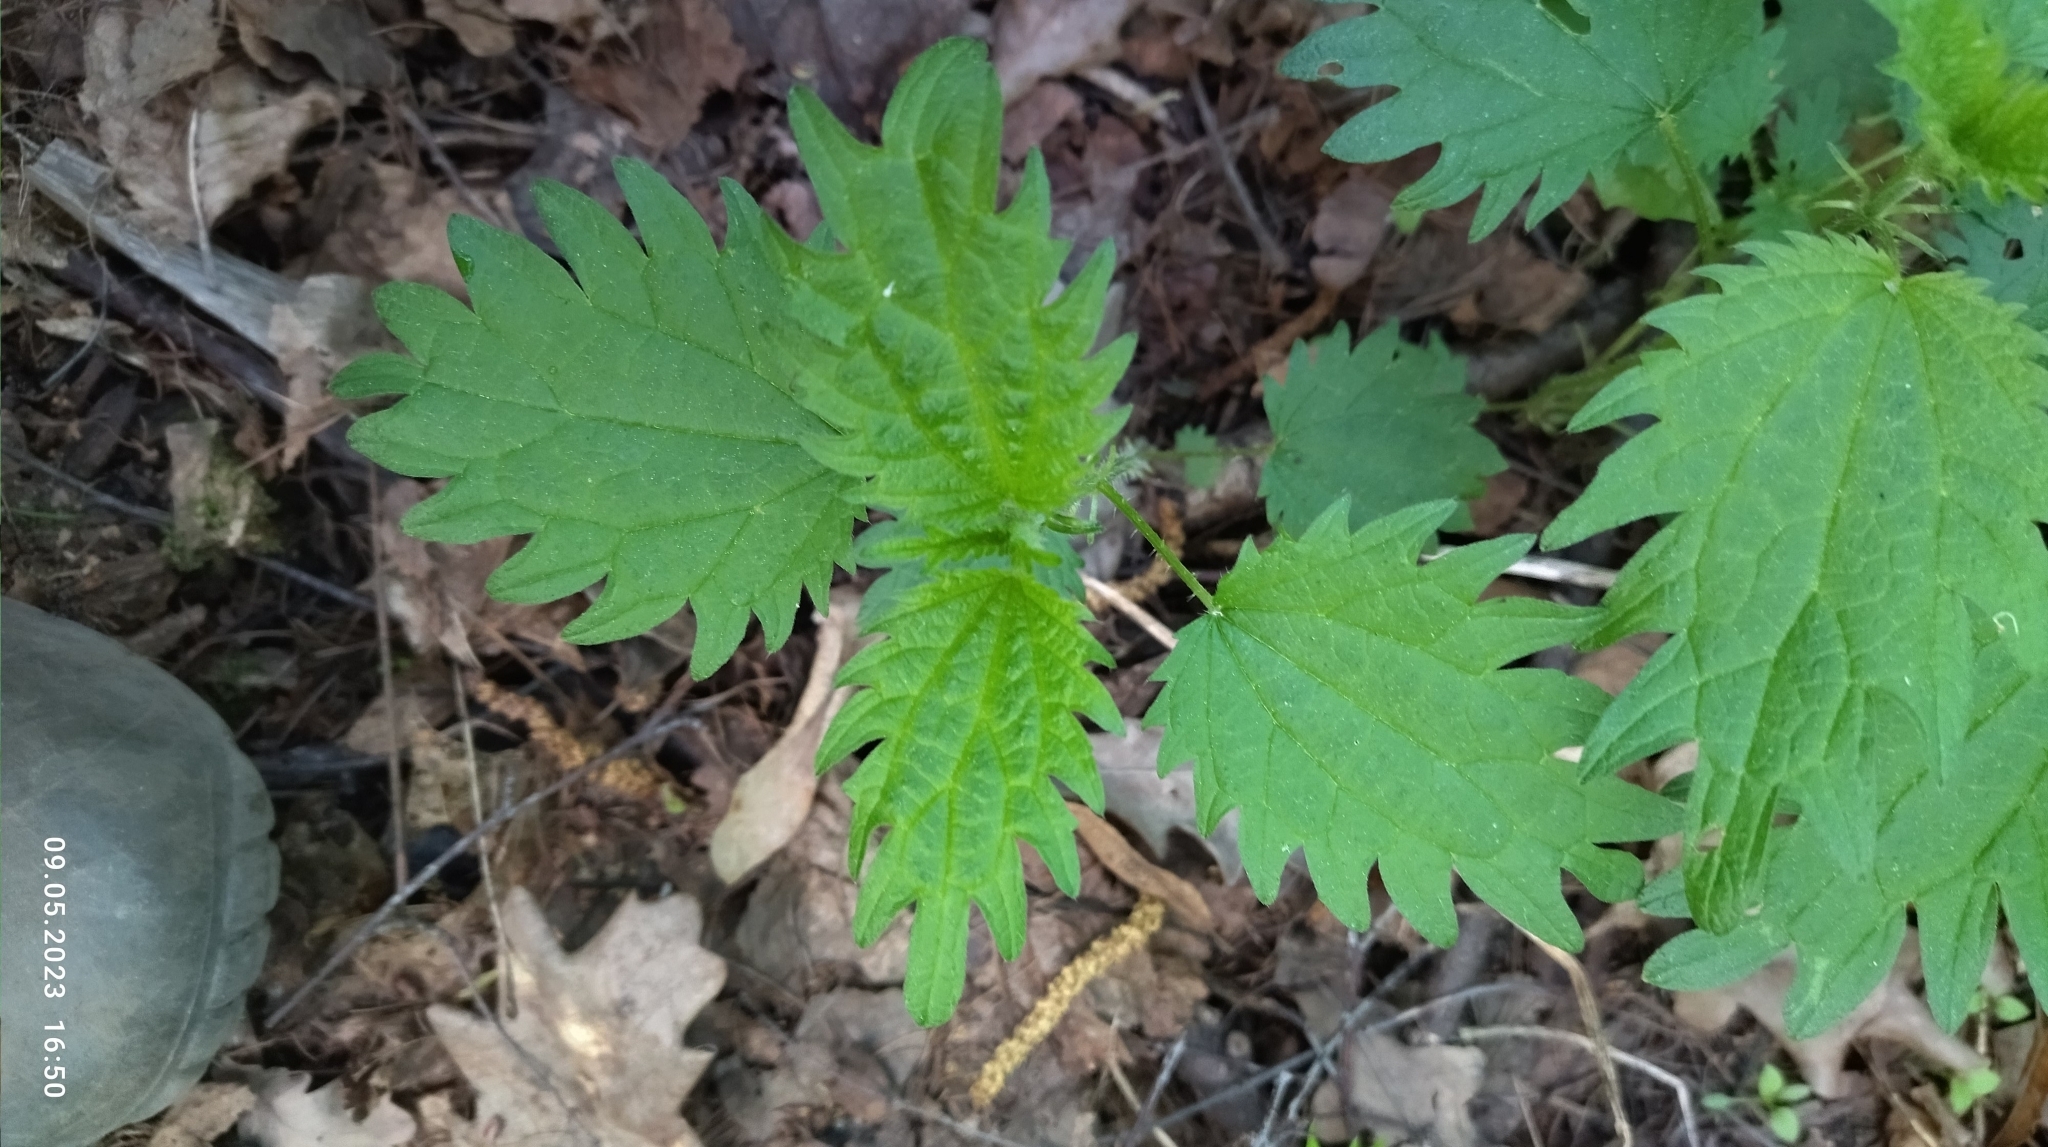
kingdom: Plantae
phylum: Tracheophyta
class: Magnoliopsida
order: Rosales
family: Urticaceae
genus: Urtica
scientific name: Urtica dioica
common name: Common nettle
